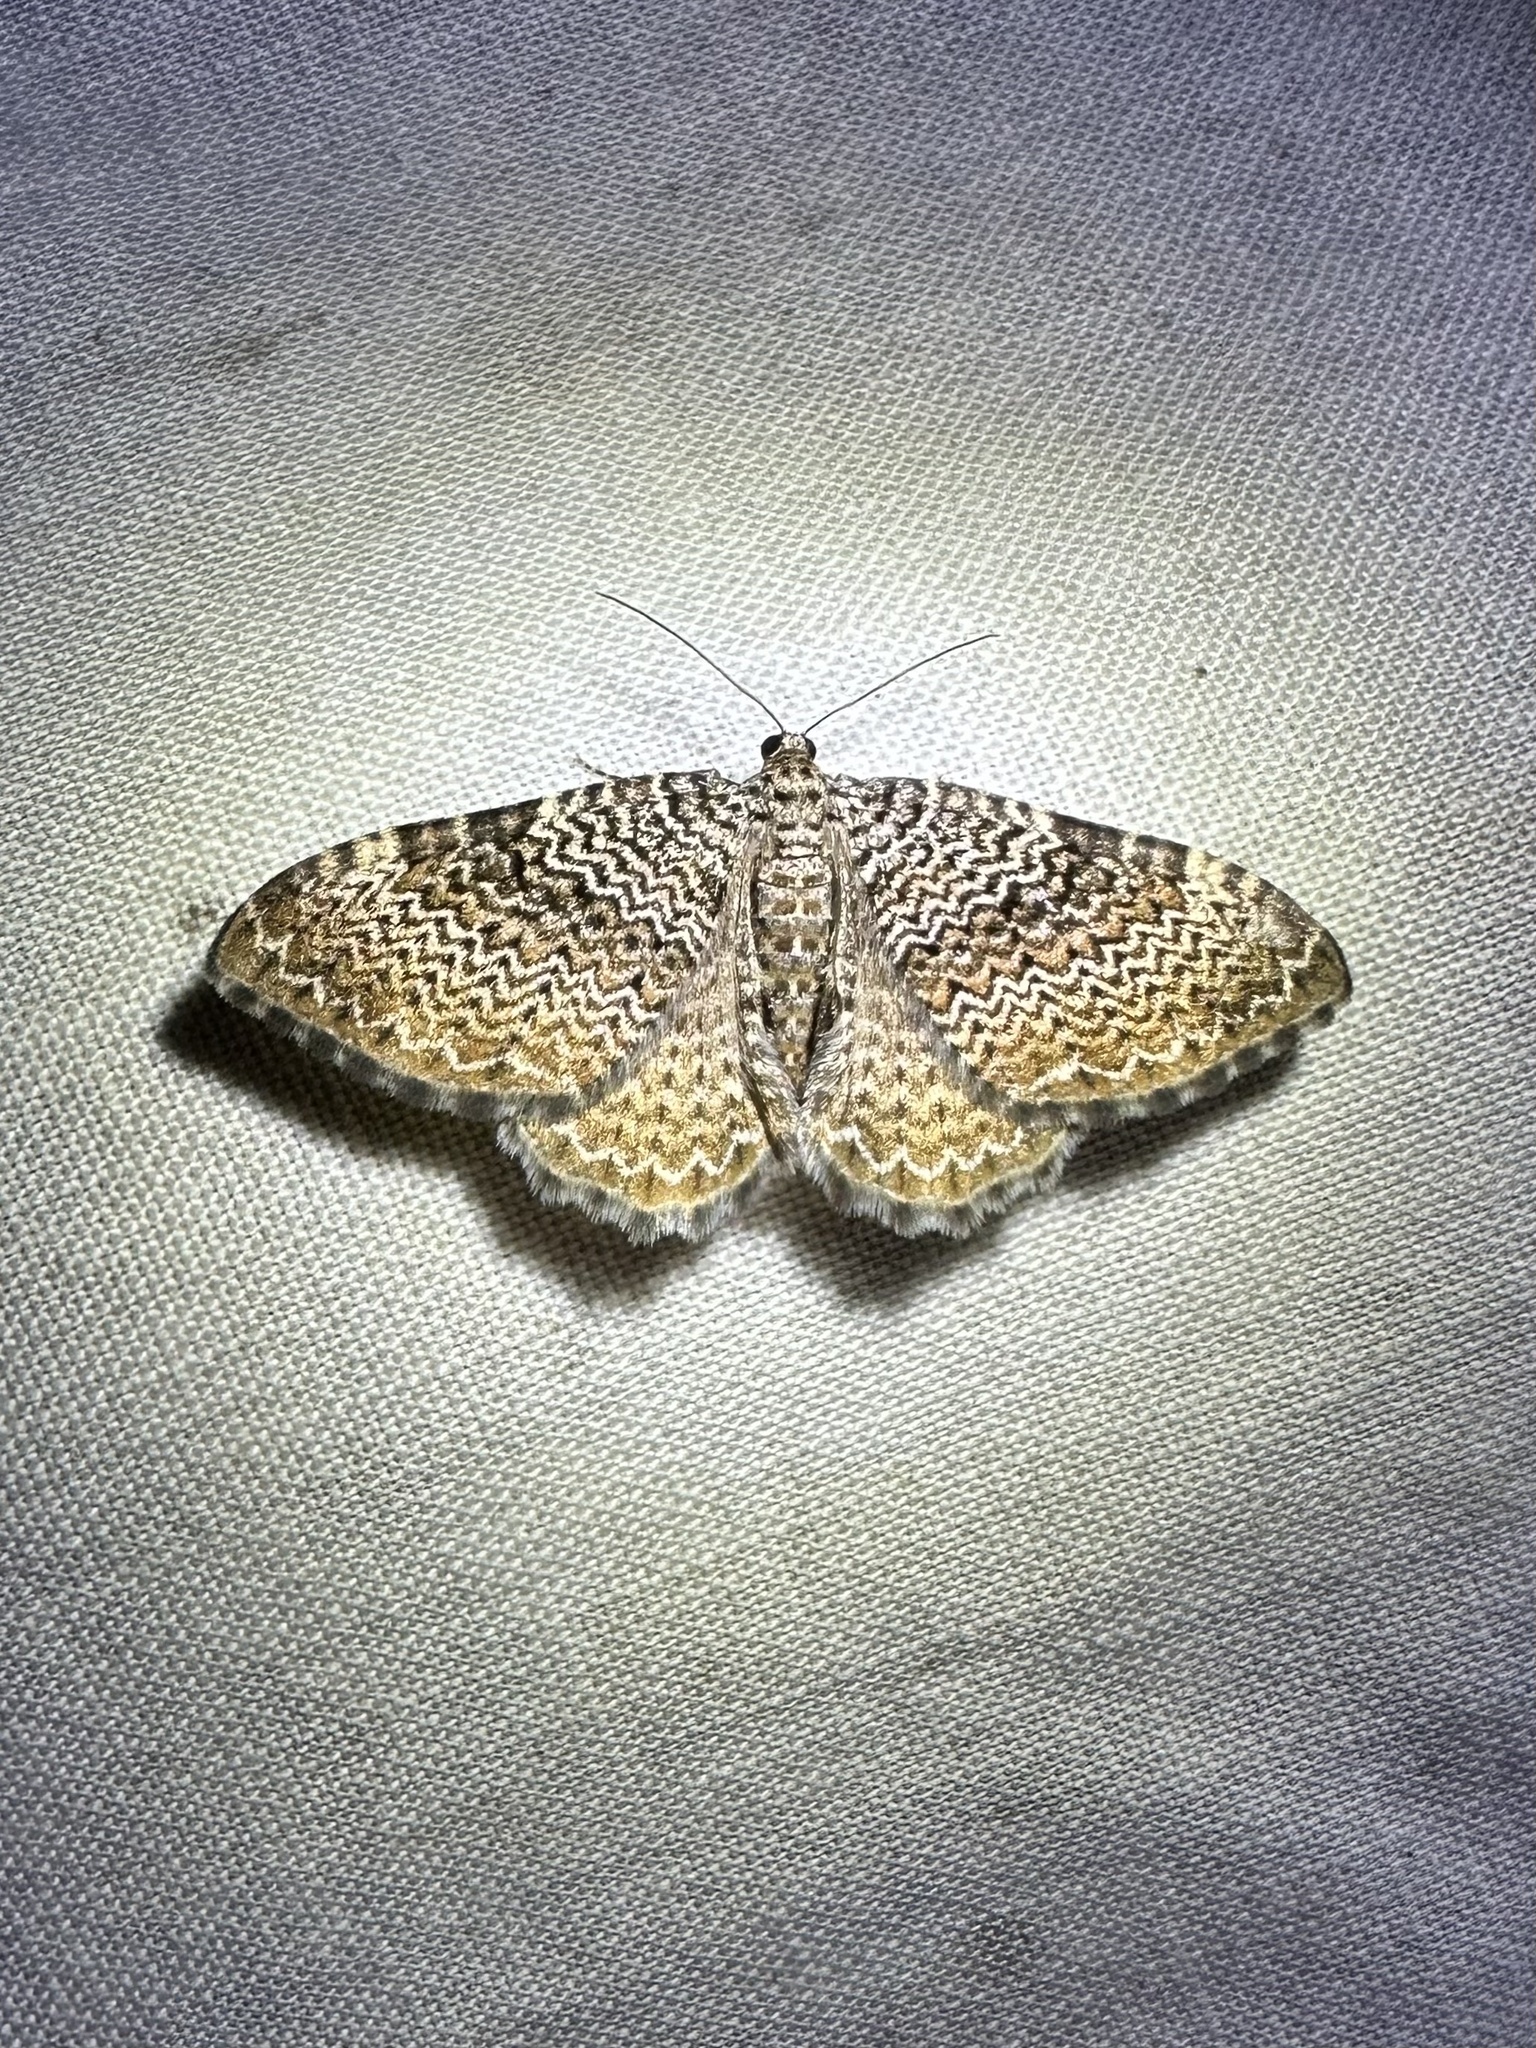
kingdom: Animalia
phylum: Arthropoda
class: Insecta
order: Lepidoptera
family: Geometridae
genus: Rheumaptera
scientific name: Rheumaptera
